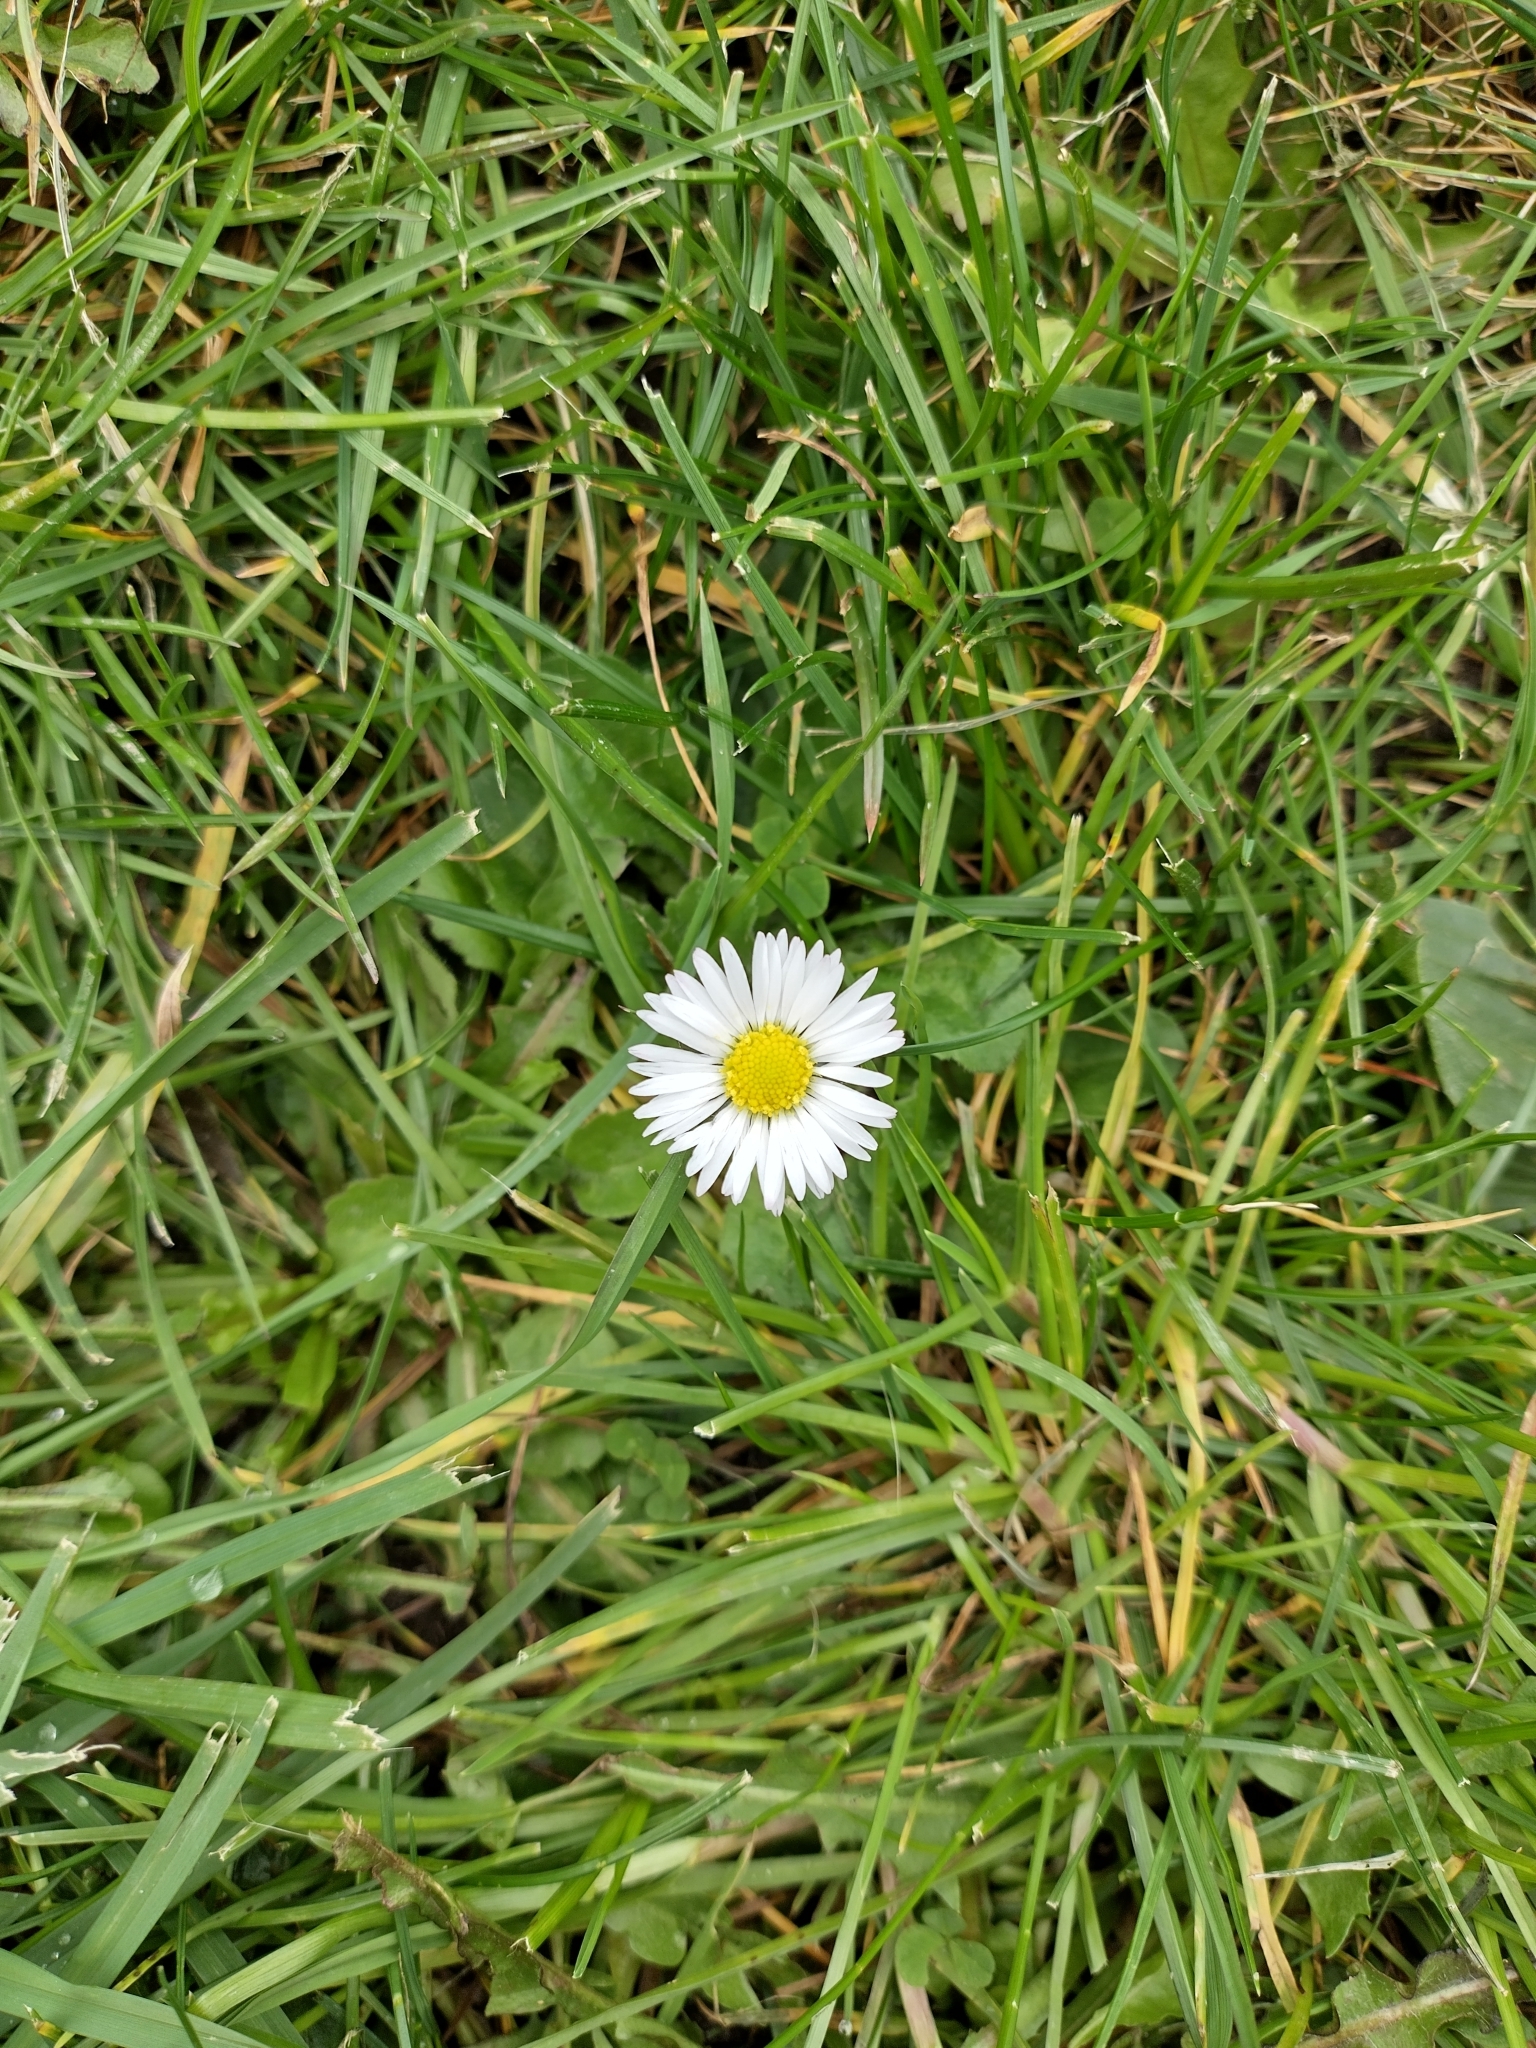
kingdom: Plantae
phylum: Tracheophyta
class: Magnoliopsida
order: Asterales
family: Asteraceae
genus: Bellis
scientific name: Bellis perennis
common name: Lawndaisy
